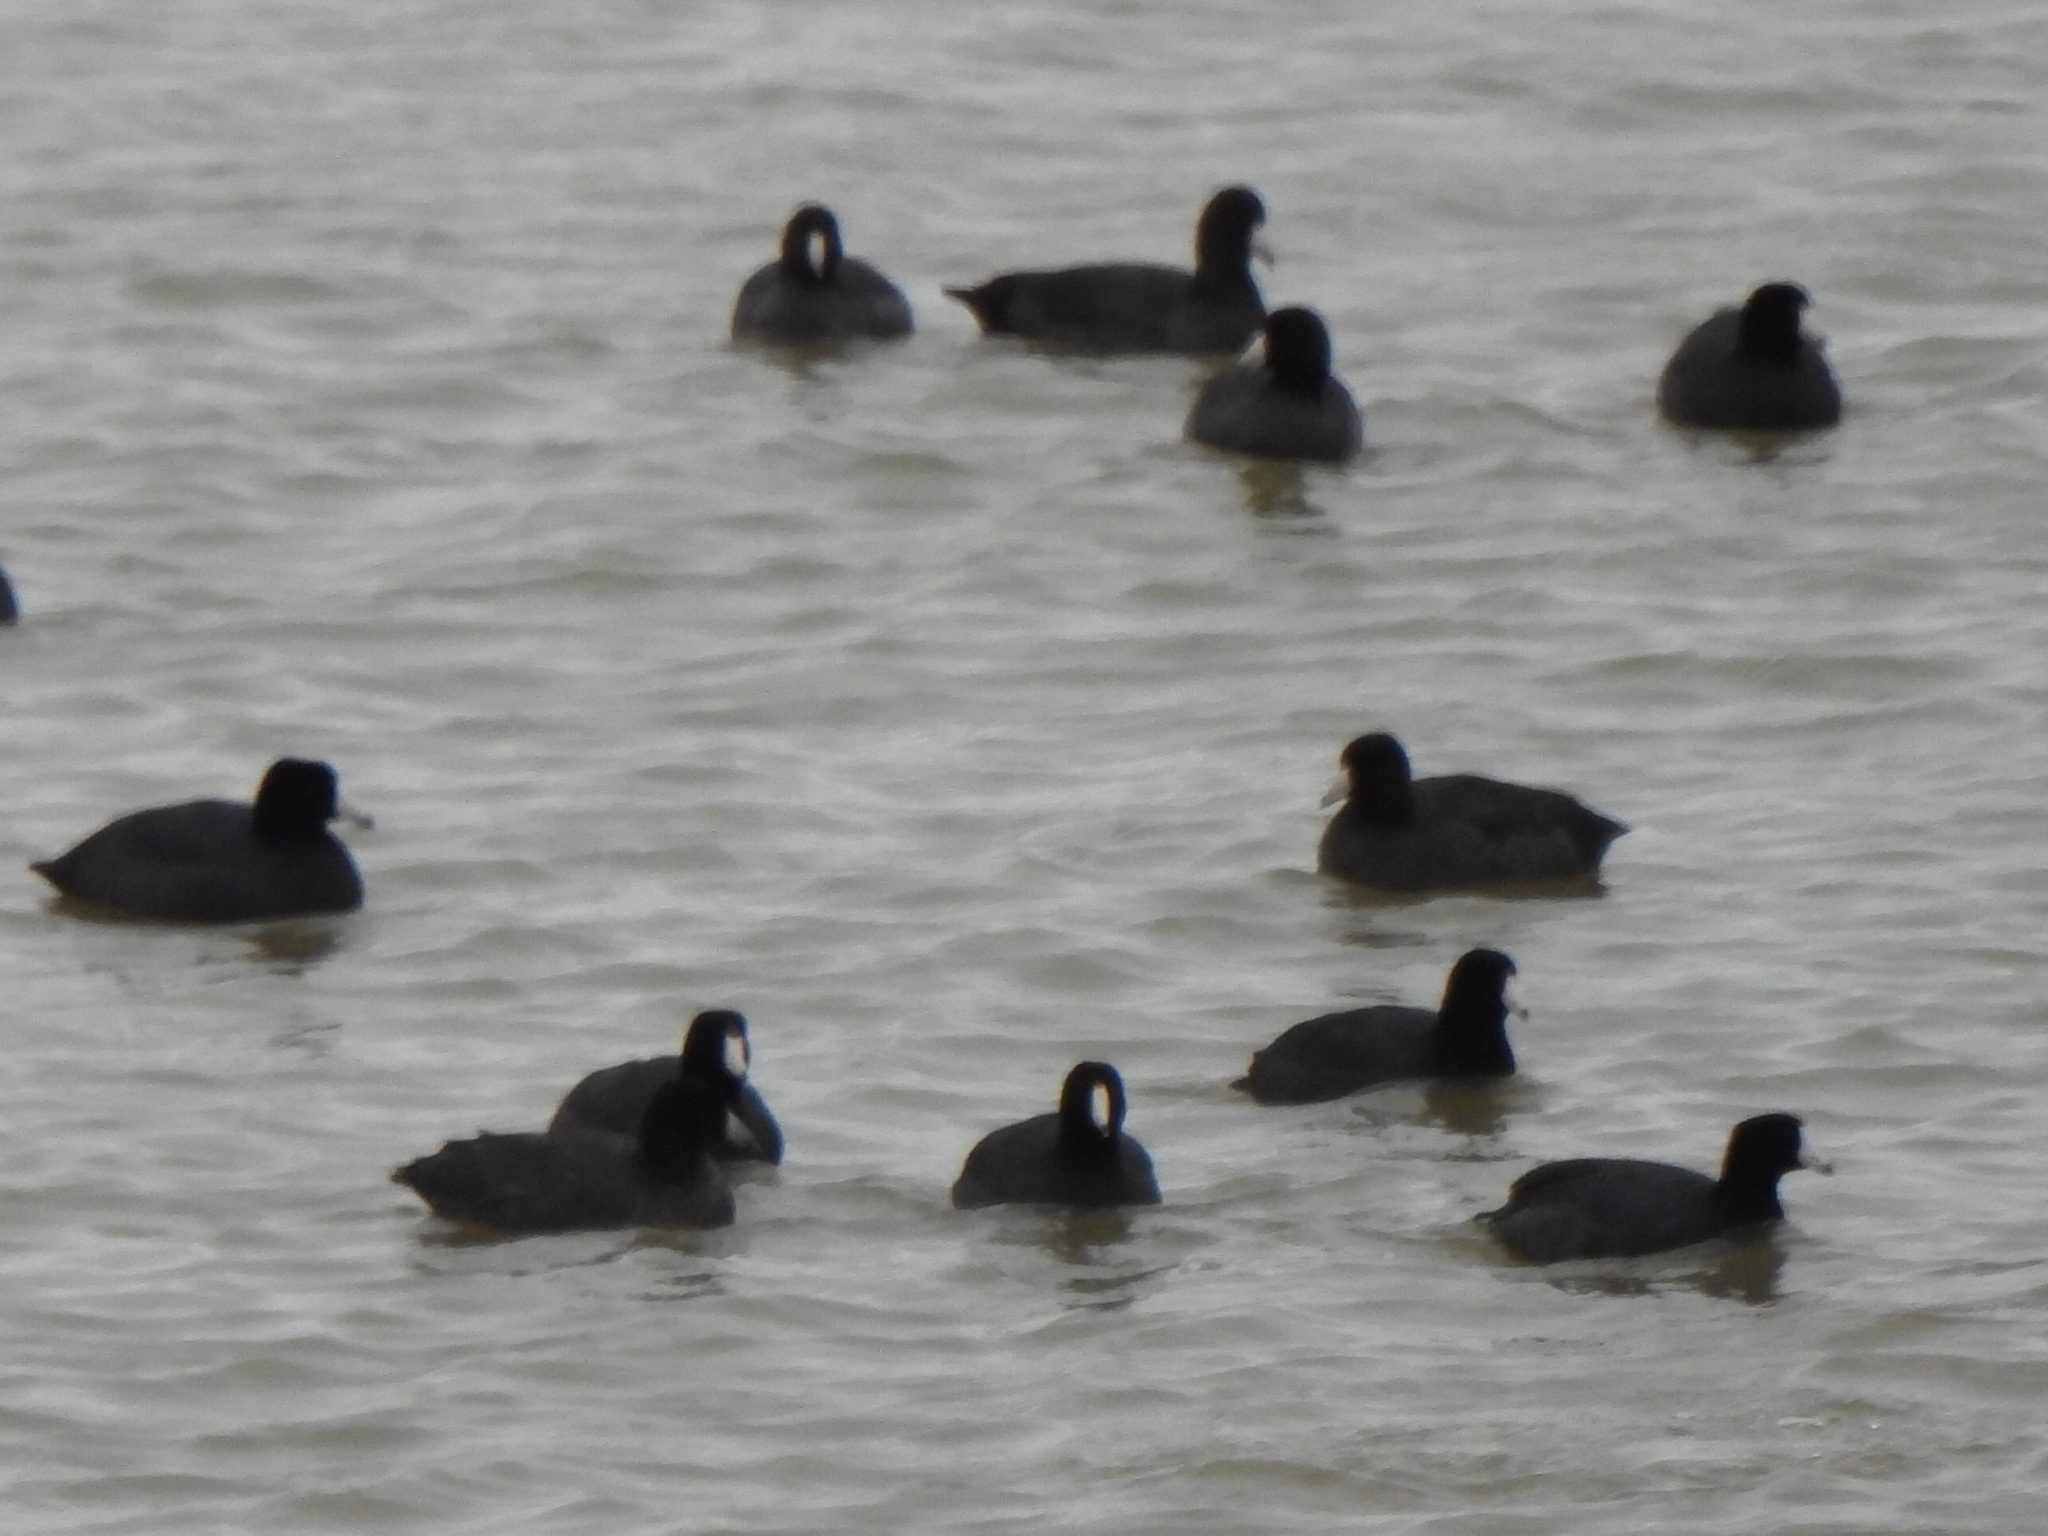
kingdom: Animalia
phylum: Chordata
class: Aves
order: Gruiformes
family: Rallidae
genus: Fulica
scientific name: Fulica americana
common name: American coot
